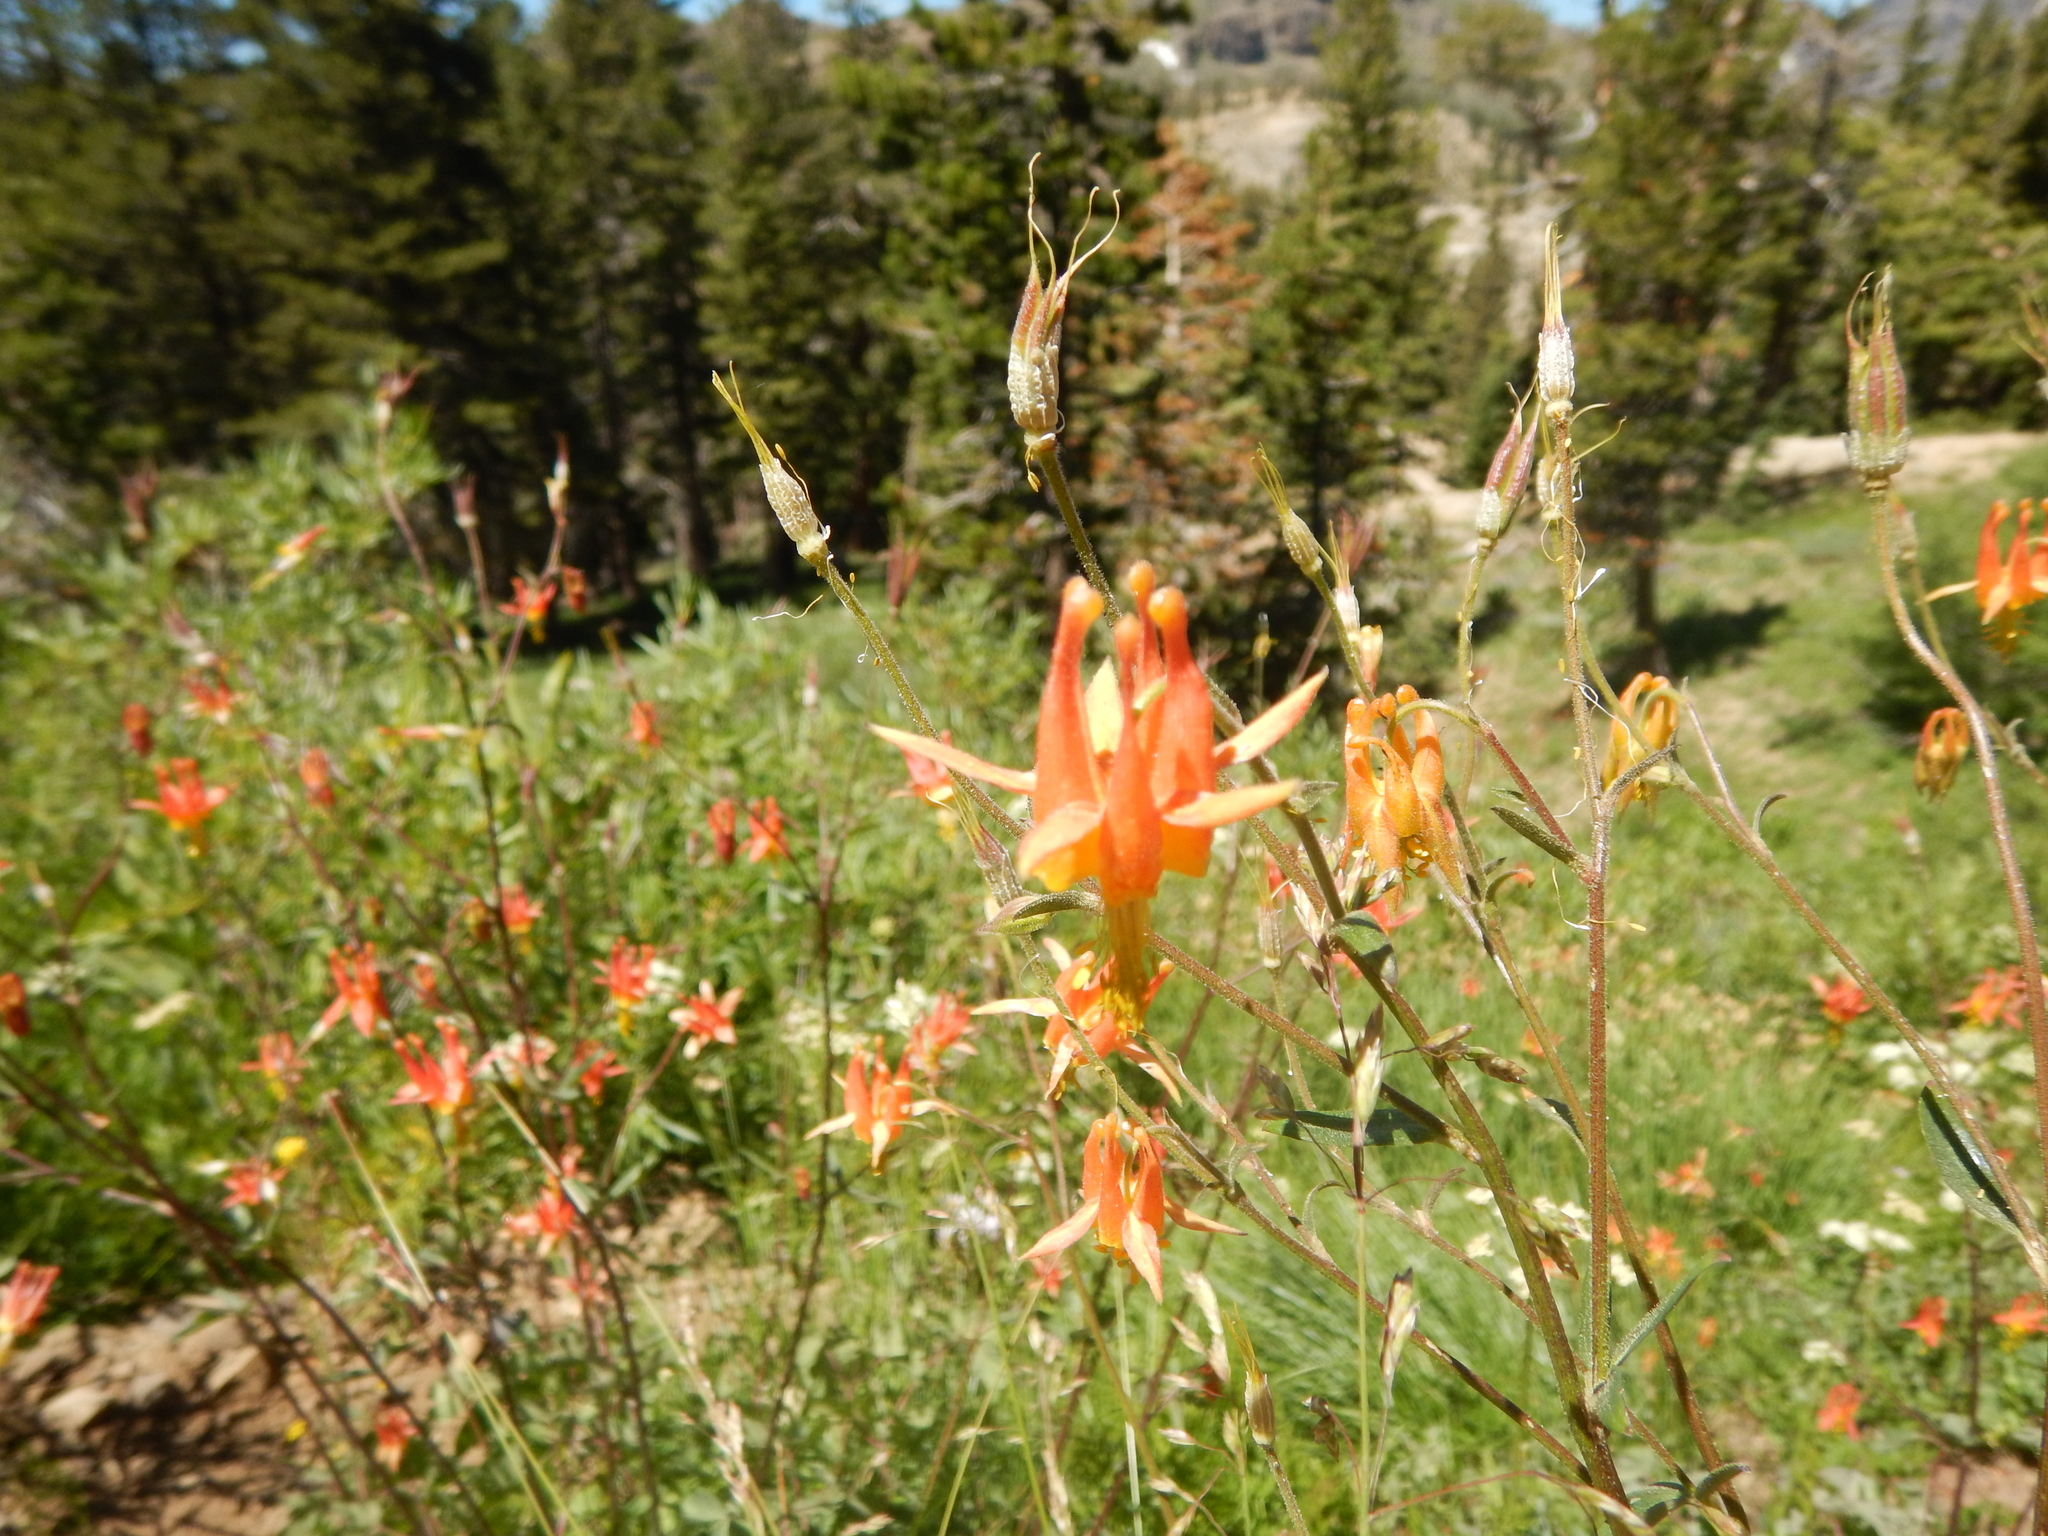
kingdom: Plantae
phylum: Tracheophyta
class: Magnoliopsida
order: Ranunculales
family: Ranunculaceae
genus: Aquilegia
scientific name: Aquilegia formosa
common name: Sitka columbine
